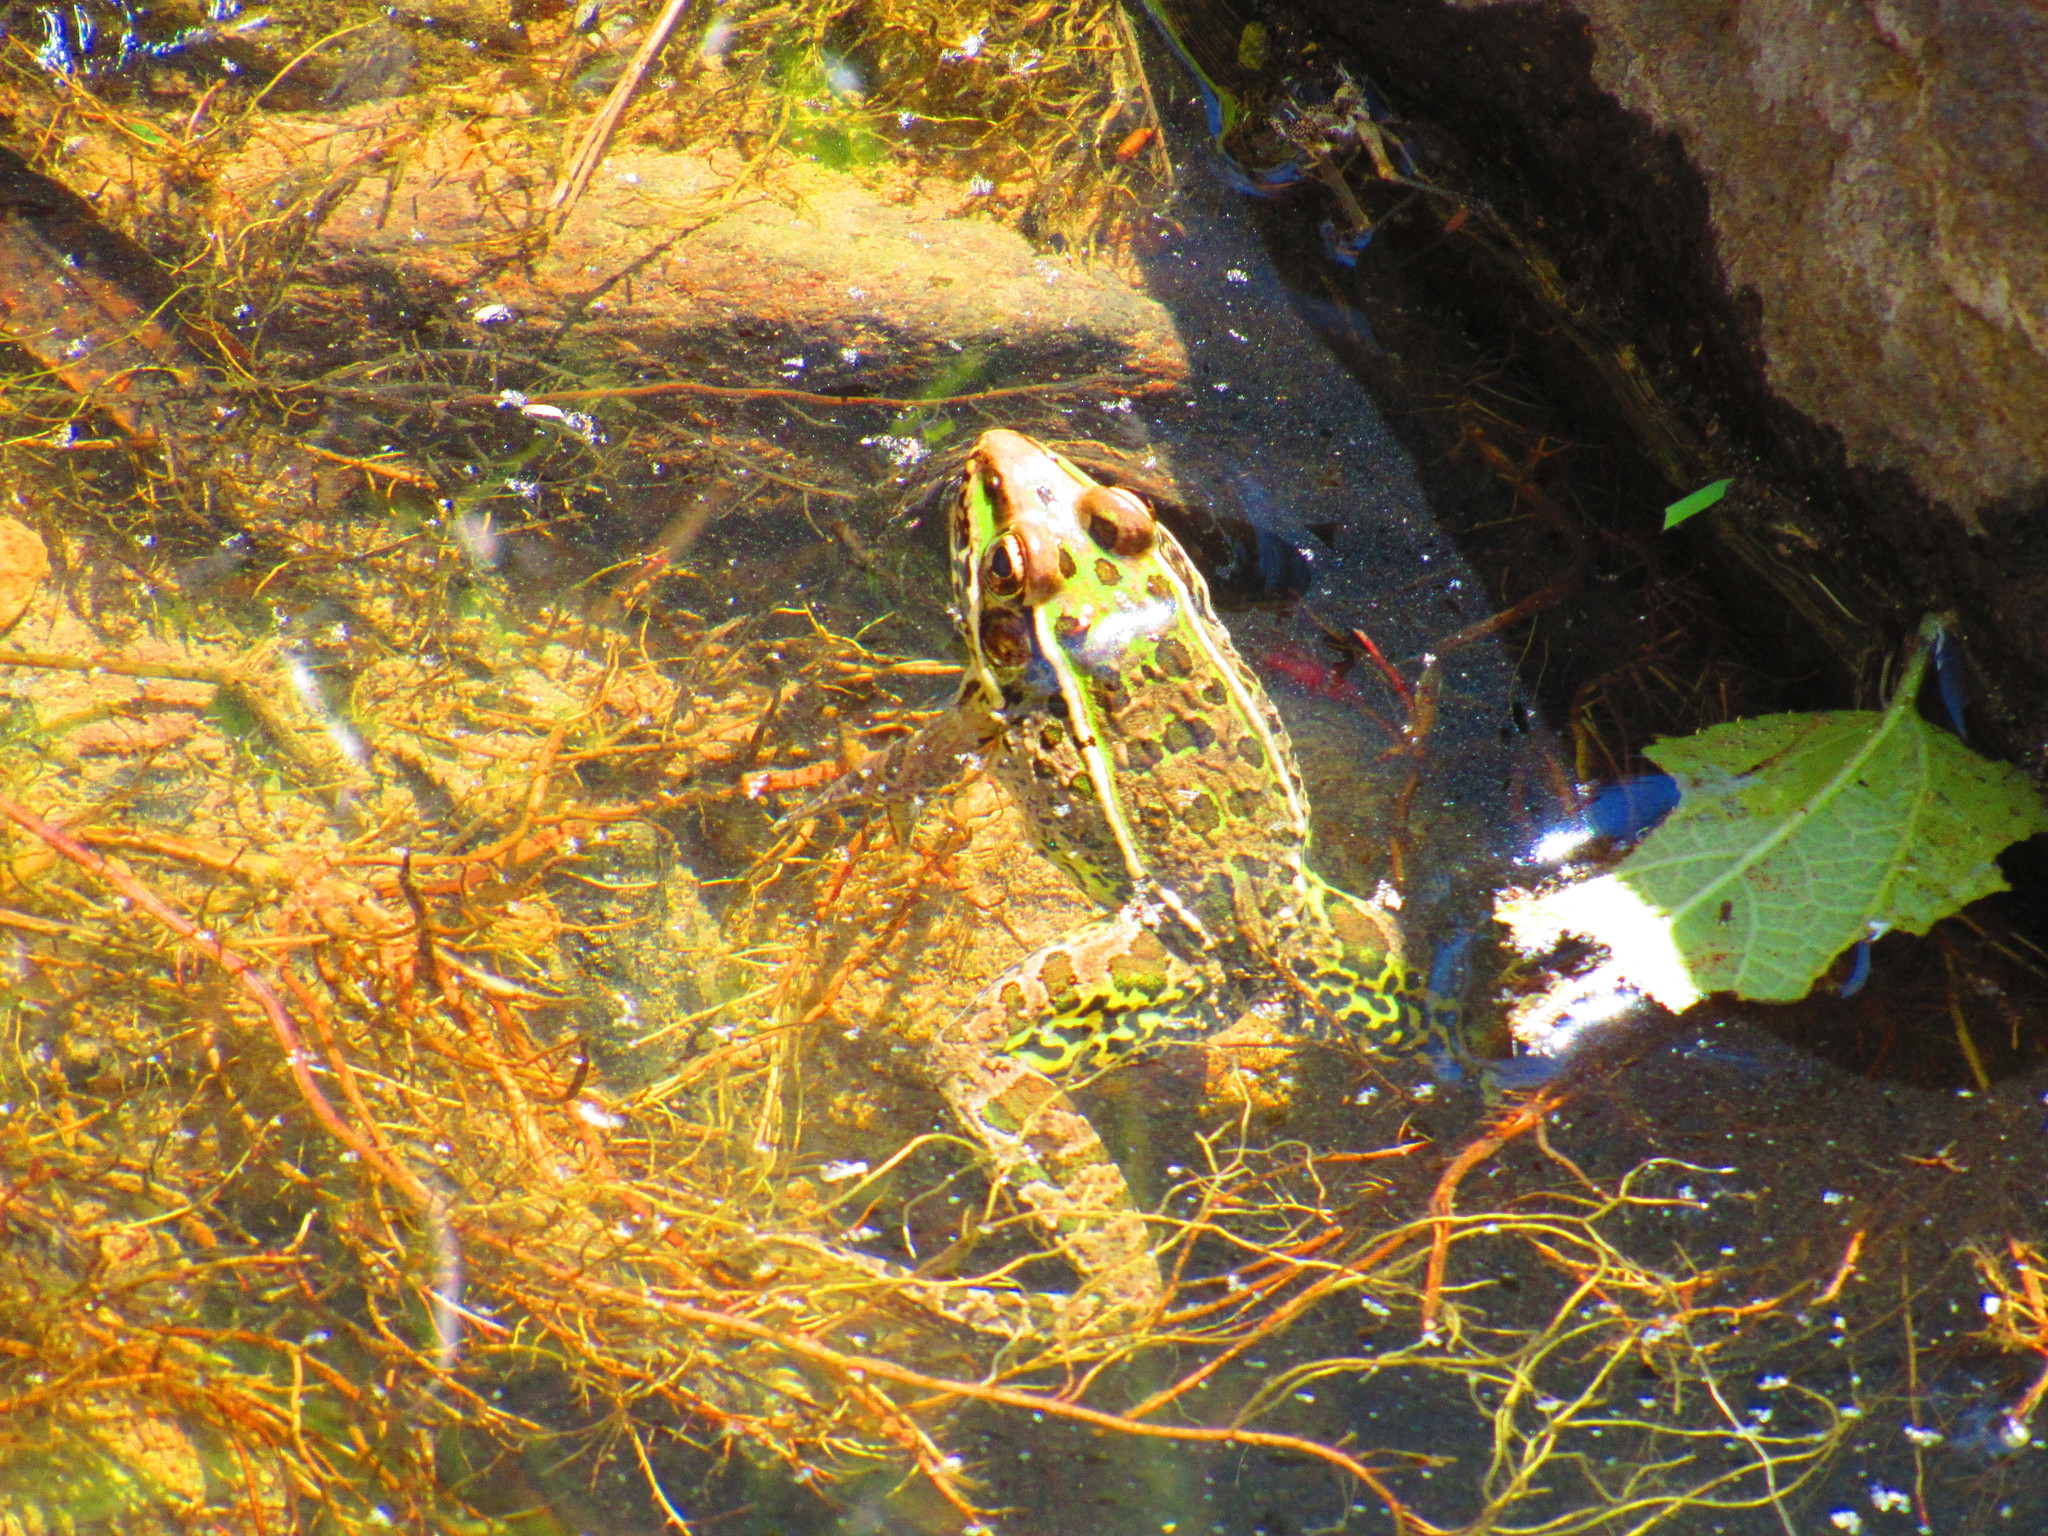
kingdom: Animalia
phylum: Chordata
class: Amphibia
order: Anura
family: Ranidae
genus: Lithobates
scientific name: Lithobates neovolcanicus
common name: Transverse volcanic leopard frog
